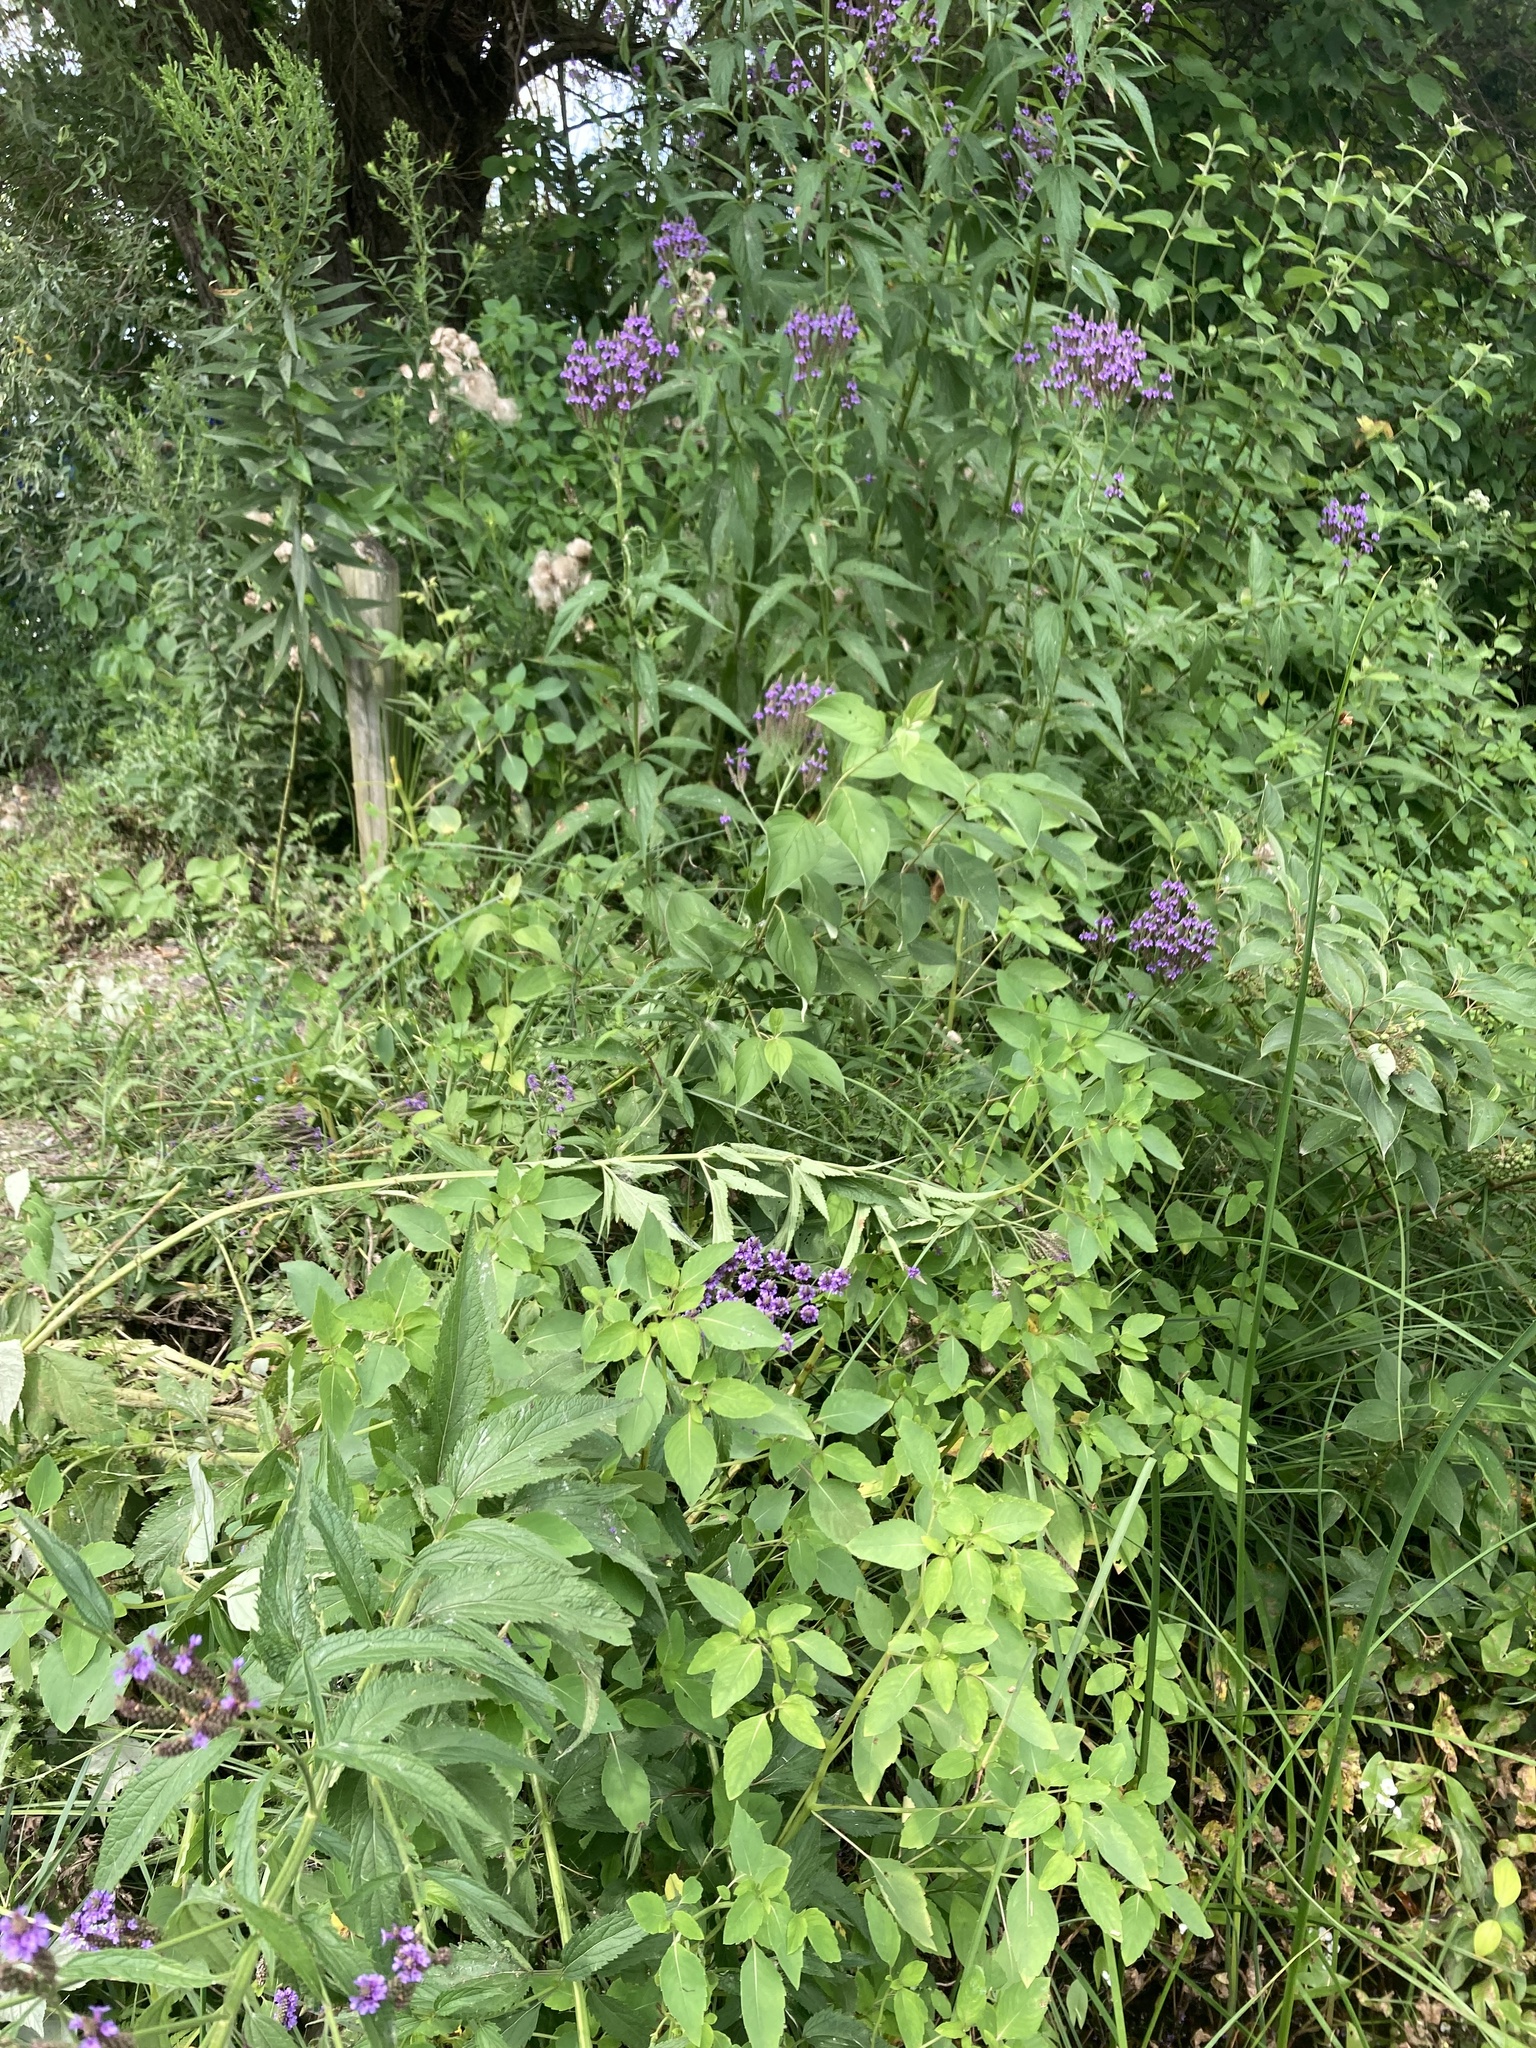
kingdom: Plantae
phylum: Tracheophyta
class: Magnoliopsida
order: Lamiales
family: Verbenaceae
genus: Verbena
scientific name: Verbena hastata
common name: American blue vervain
